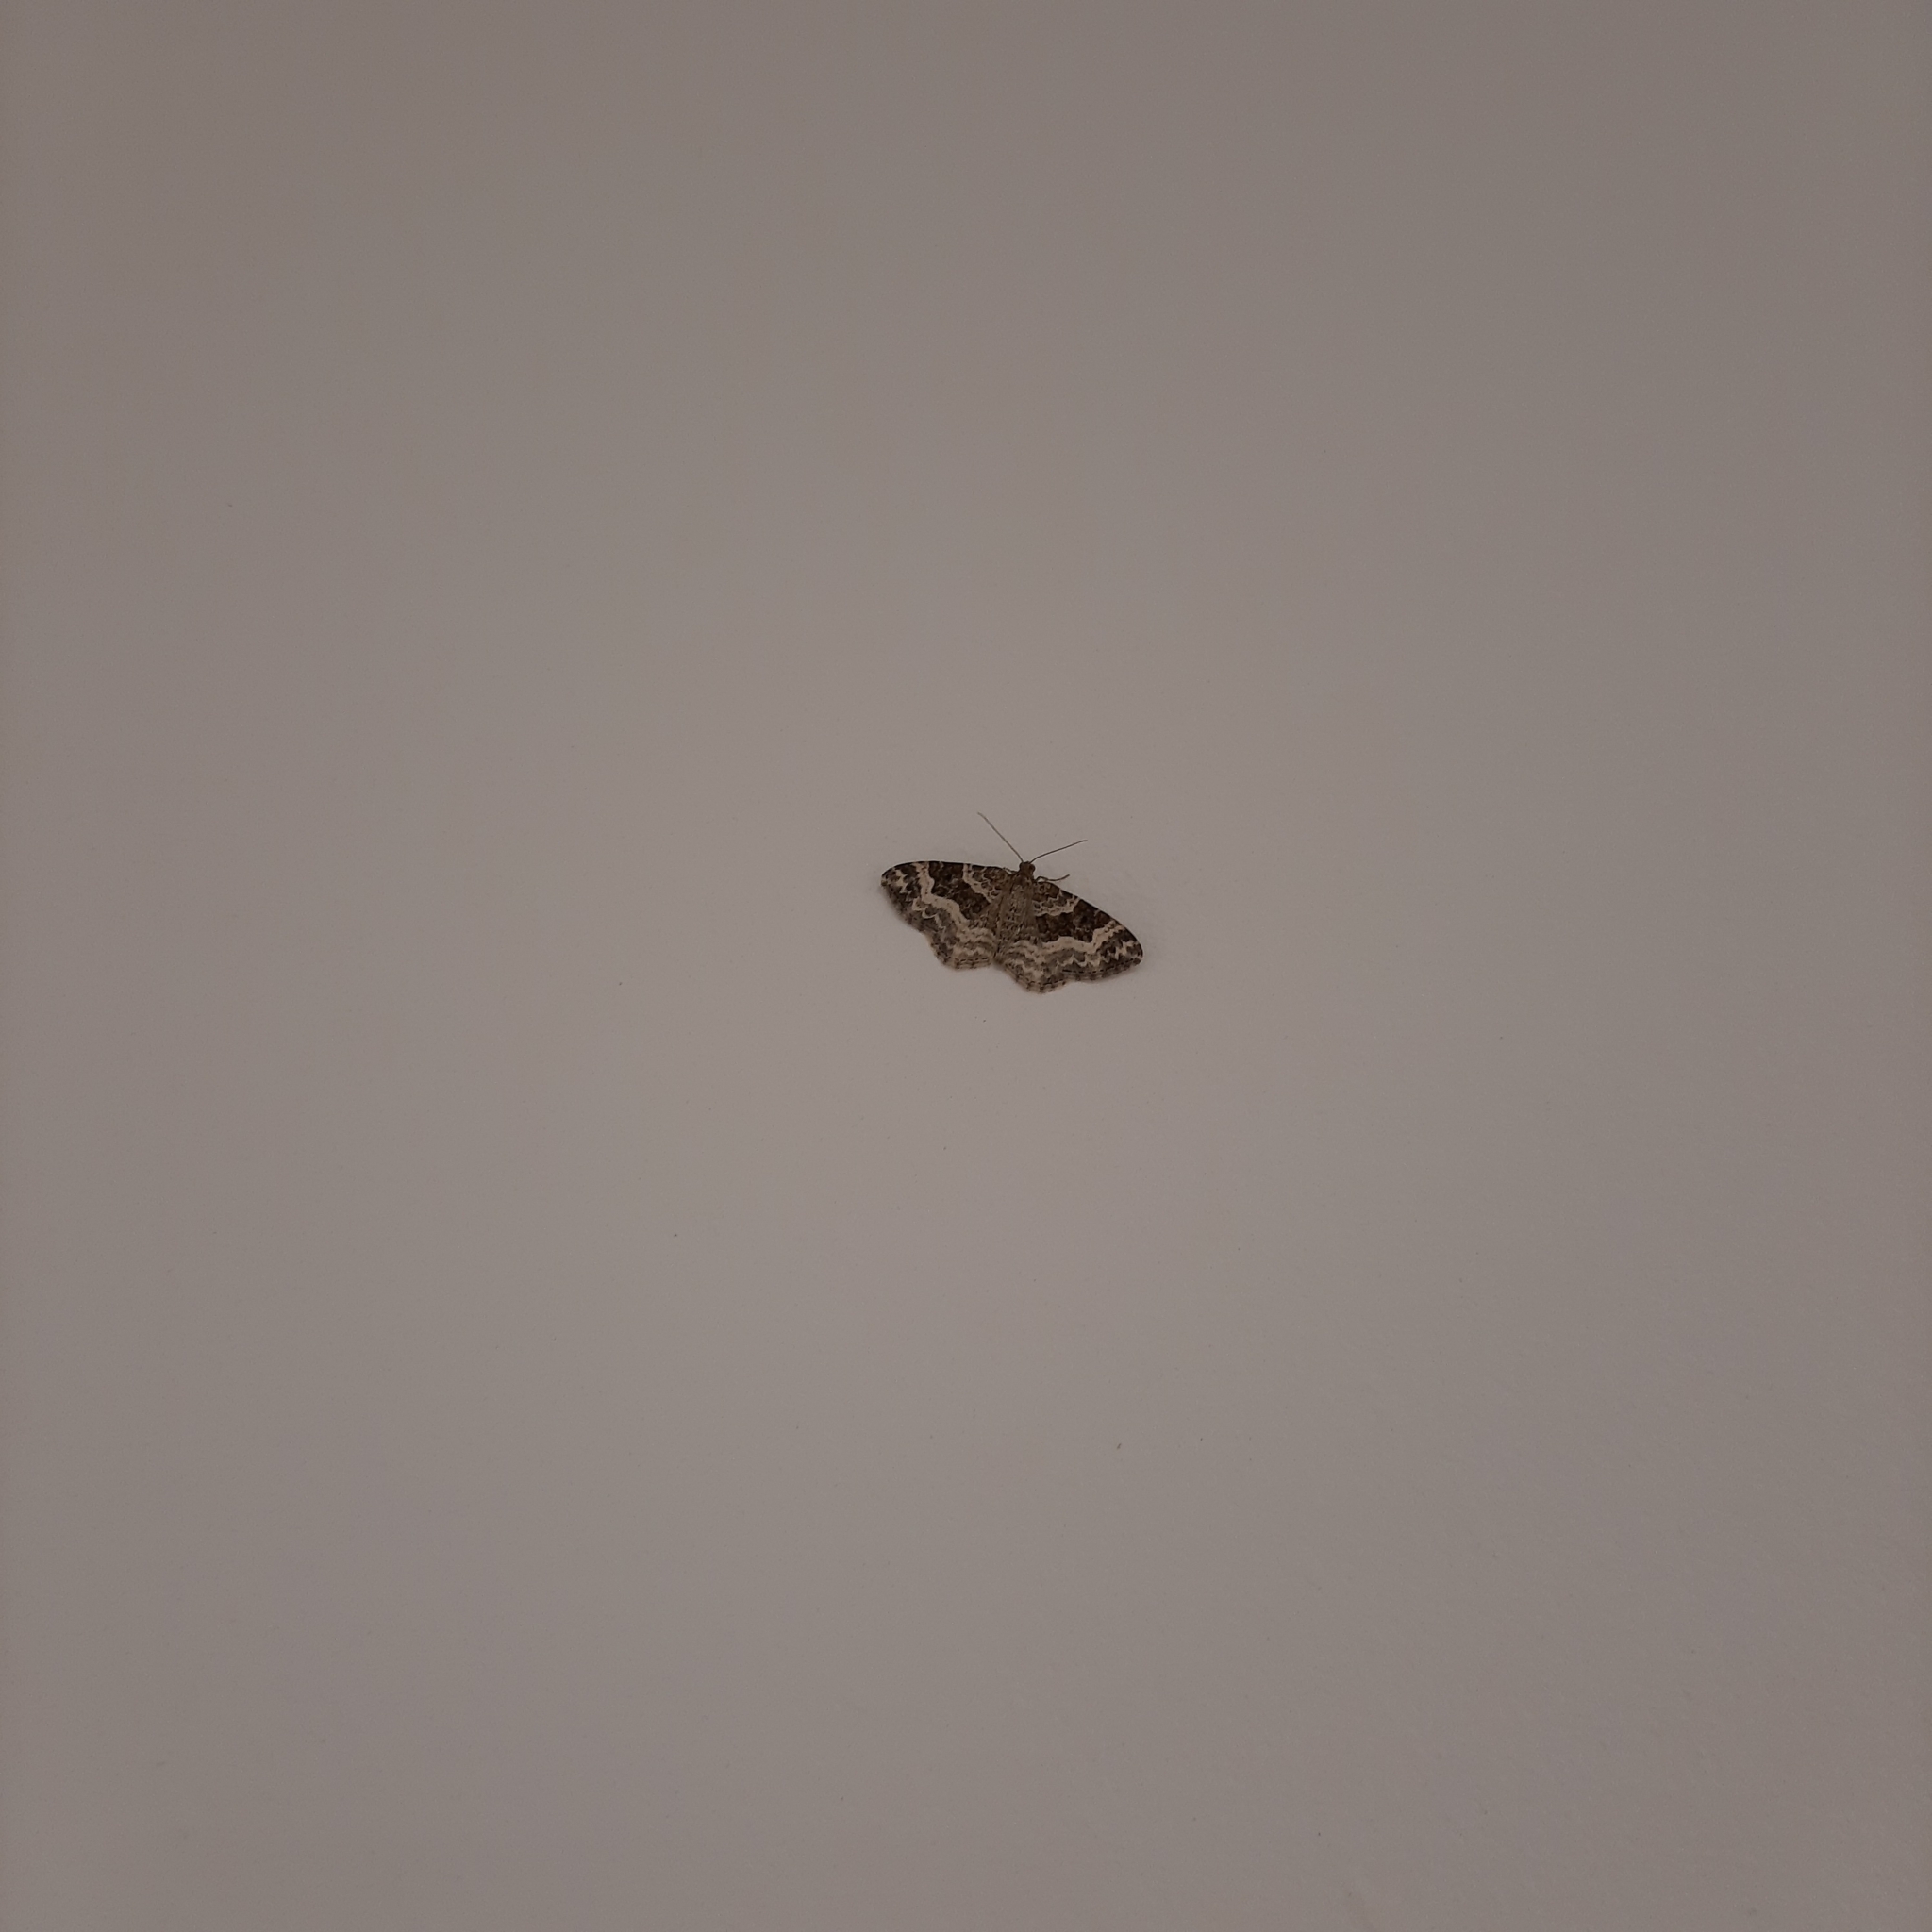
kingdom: Animalia
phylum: Arthropoda
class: Insecta
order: Lepidoptera
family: Geometridae
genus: Epirrhoe
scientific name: Epirrhoe alternata
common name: Common carpet
